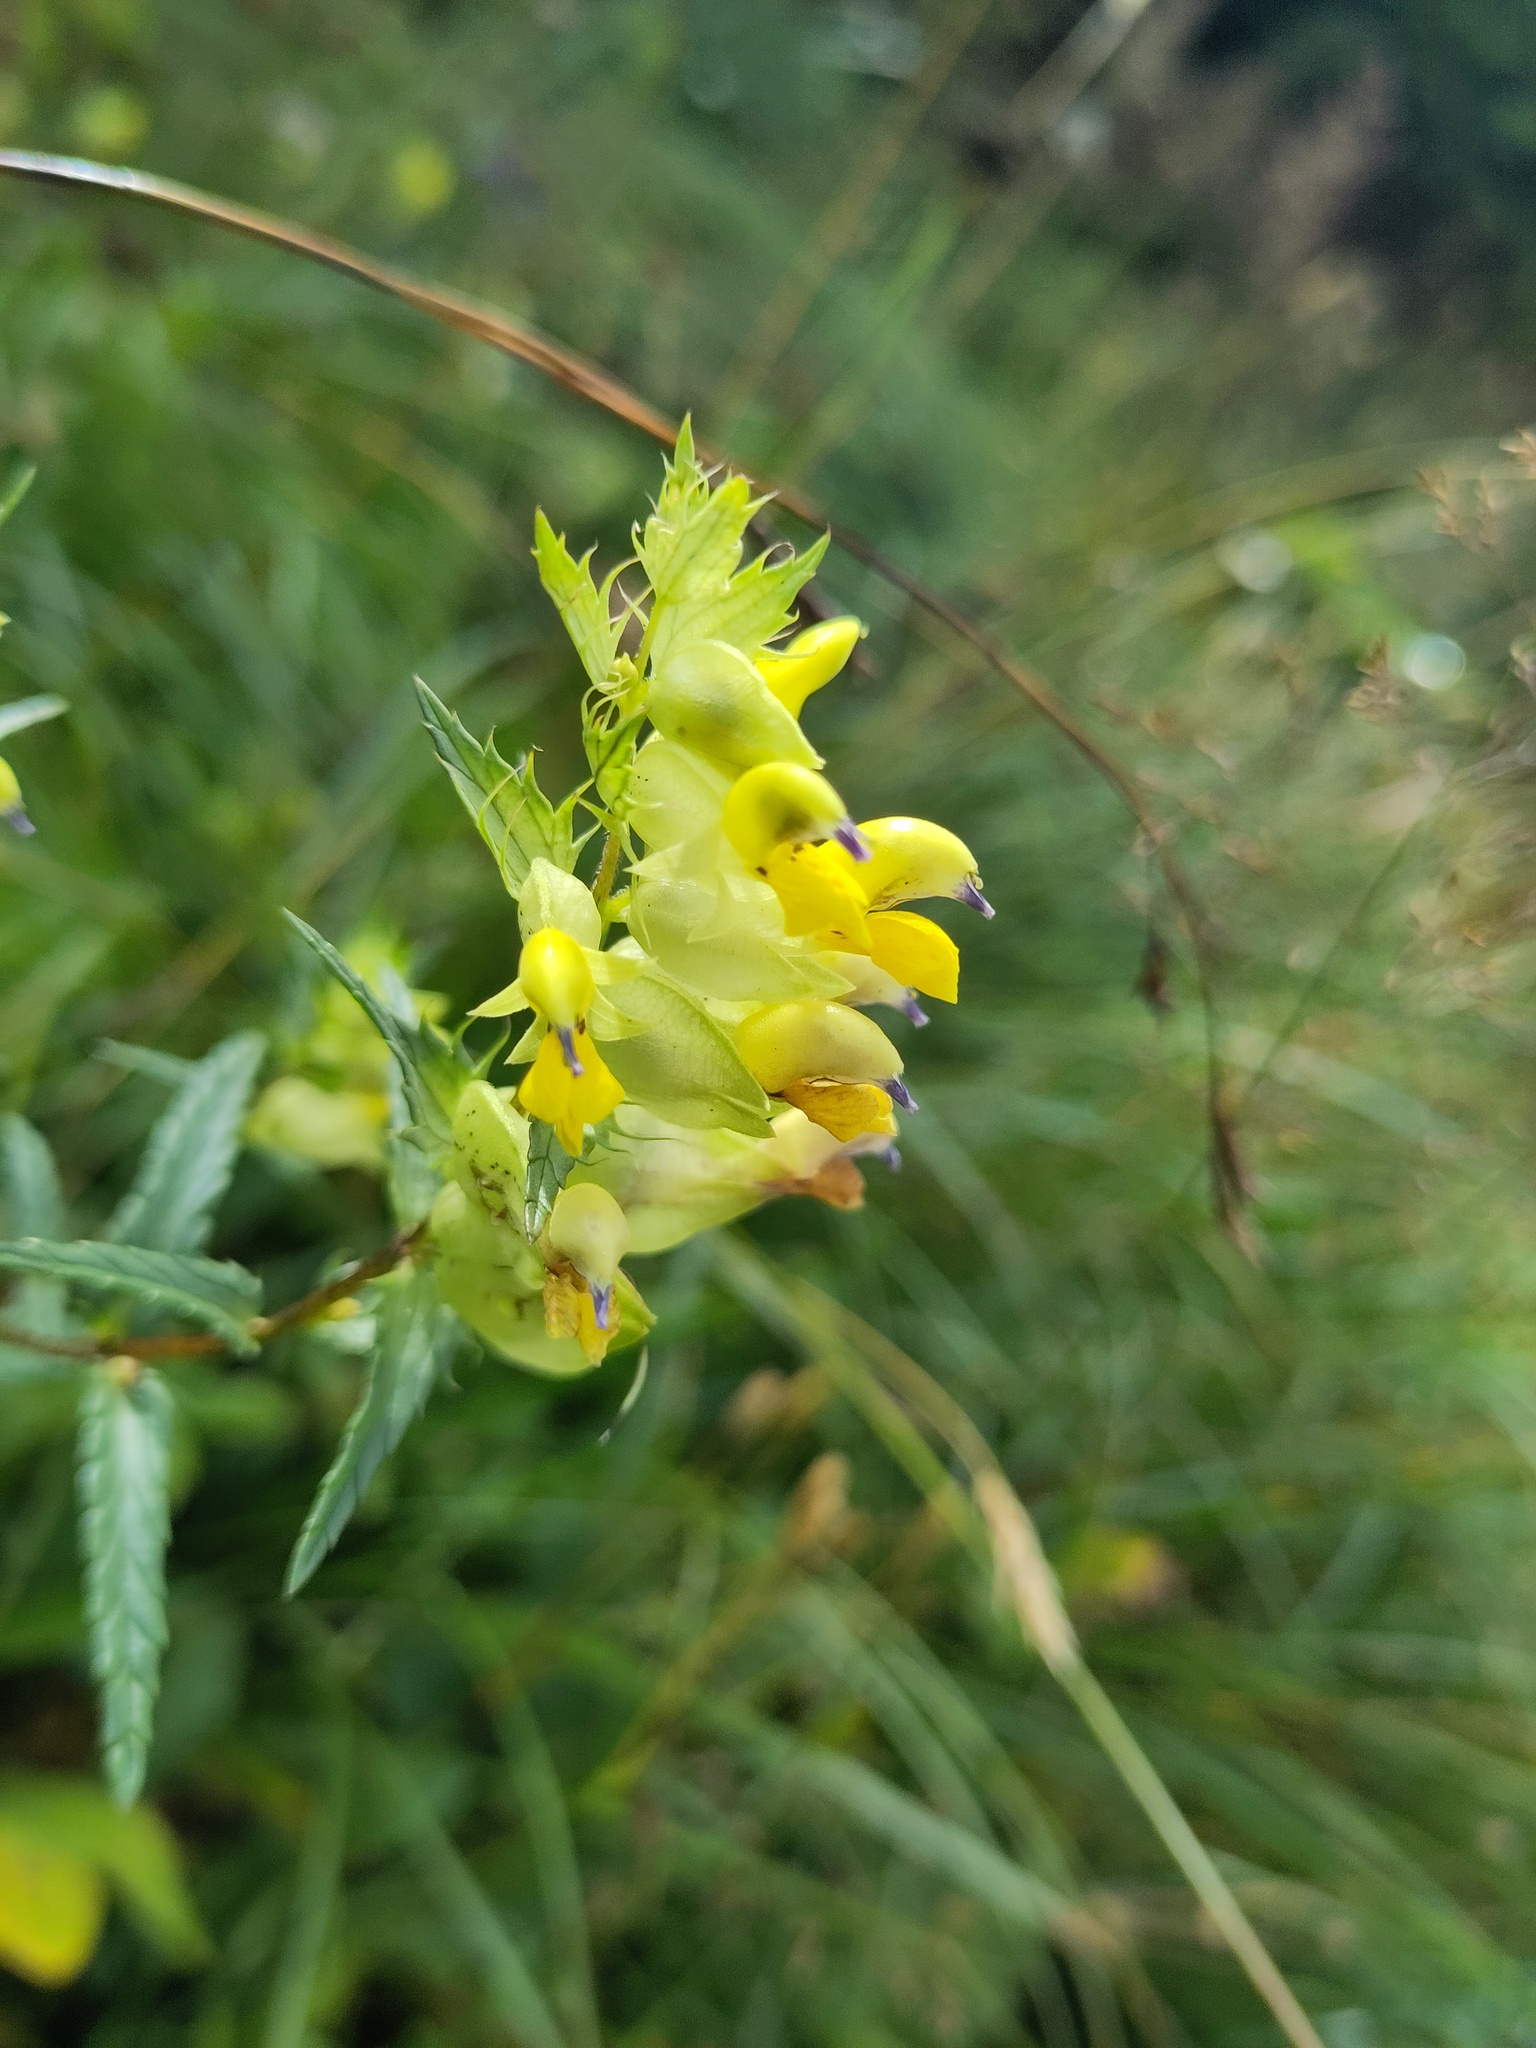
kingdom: Plantae
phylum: Tracheophyta
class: Magnoliopsida
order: Lamiales
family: Orobanchaceae
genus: Rhinanthus
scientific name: Rhinanthus glacialis
